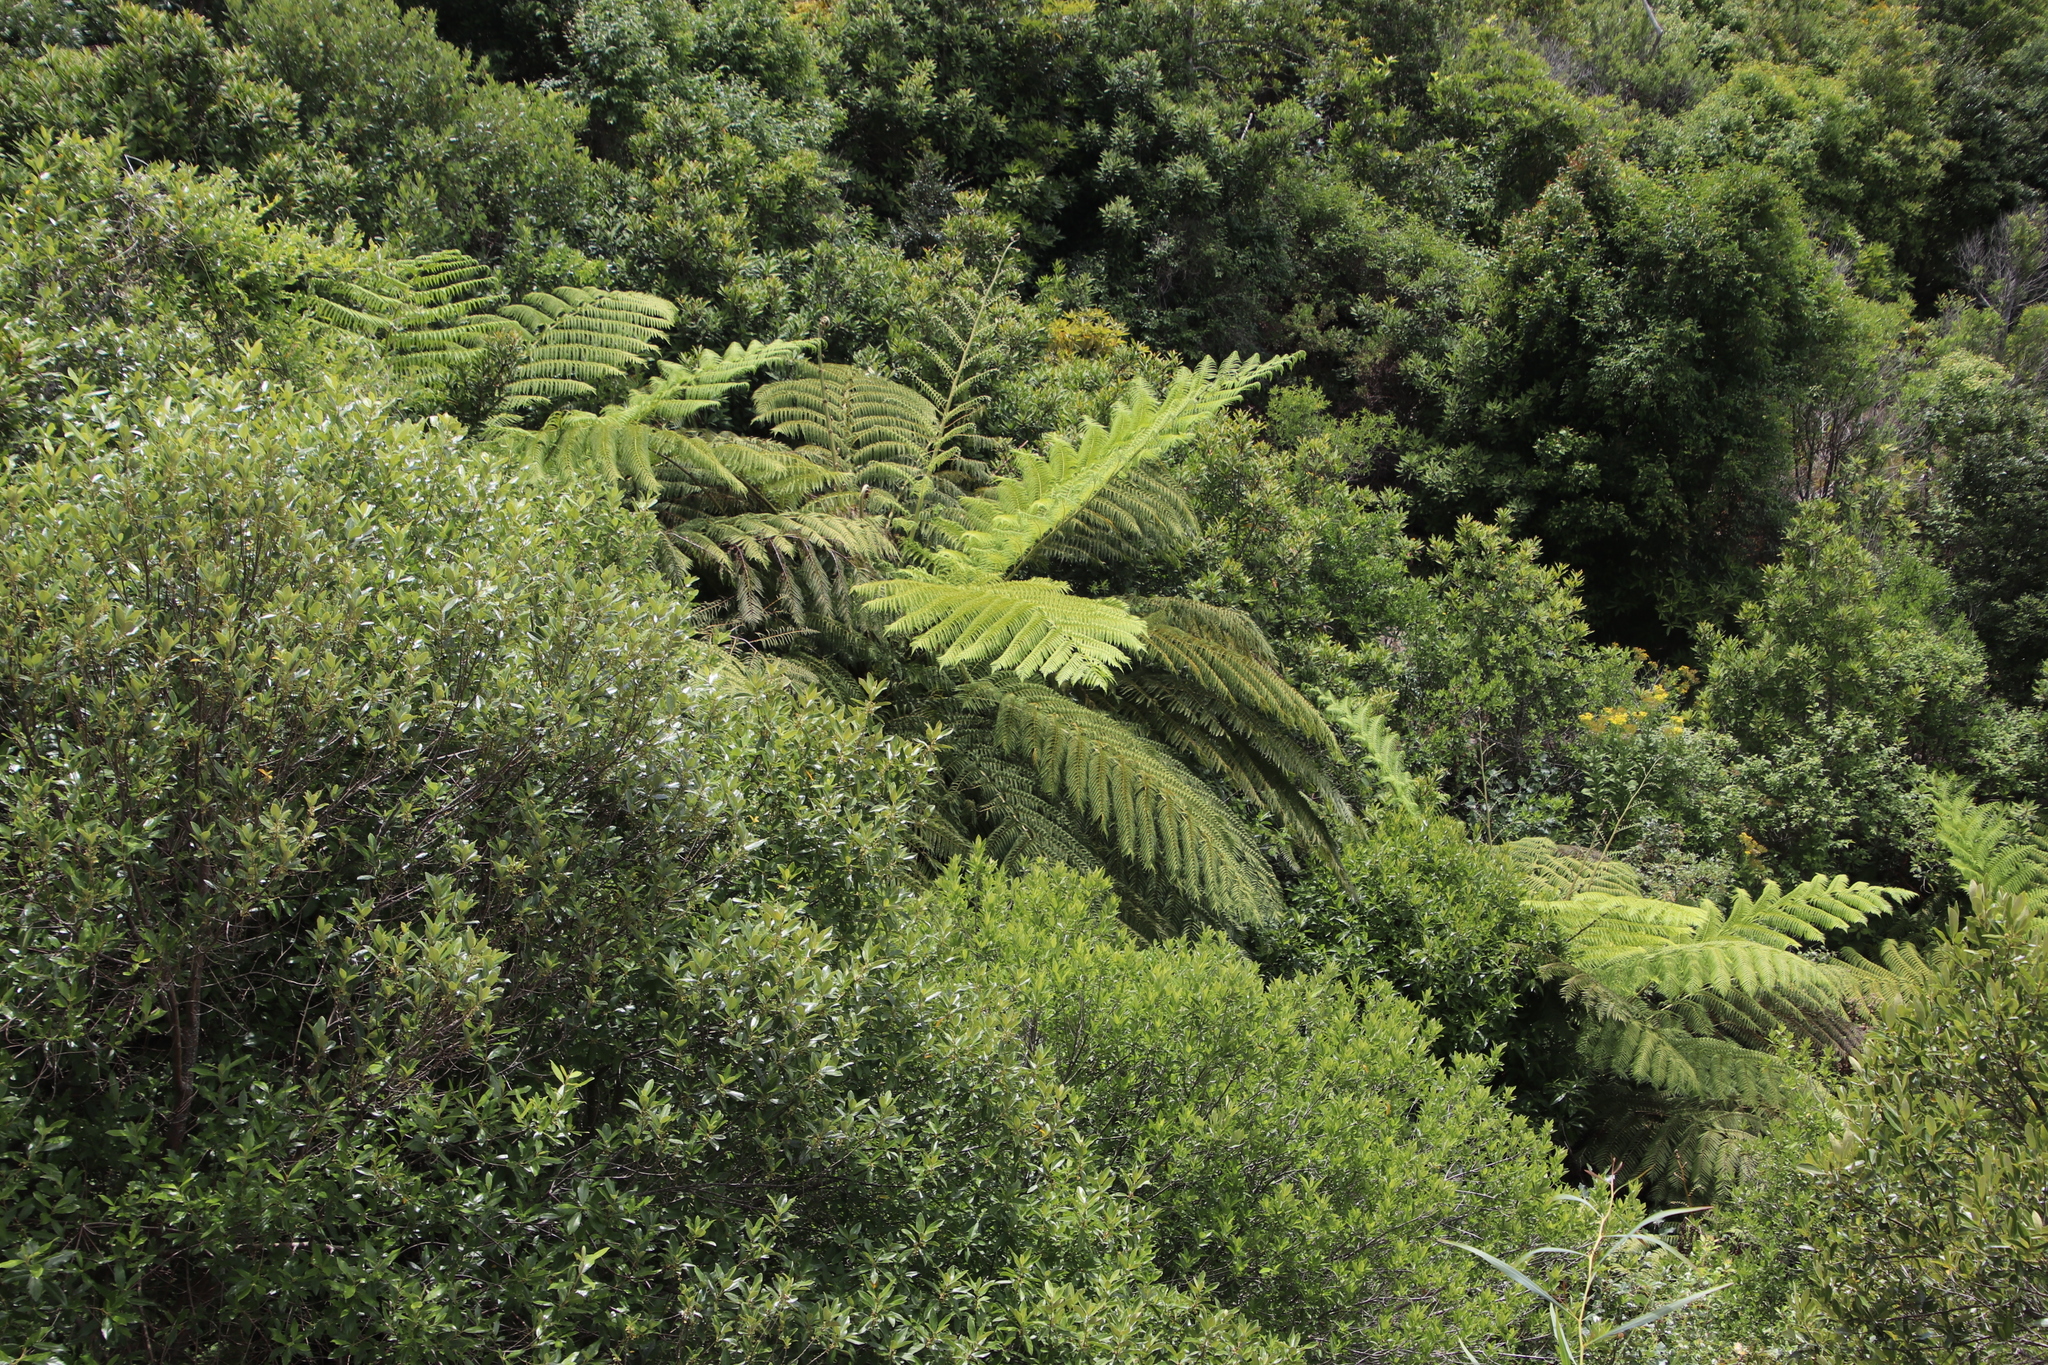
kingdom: Plantae
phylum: Tracheophyta
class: Polypodiopsida
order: Cyatheales
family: Cyatheaceae
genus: Sphaeropteris
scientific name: Sphaeropteris cooperi
